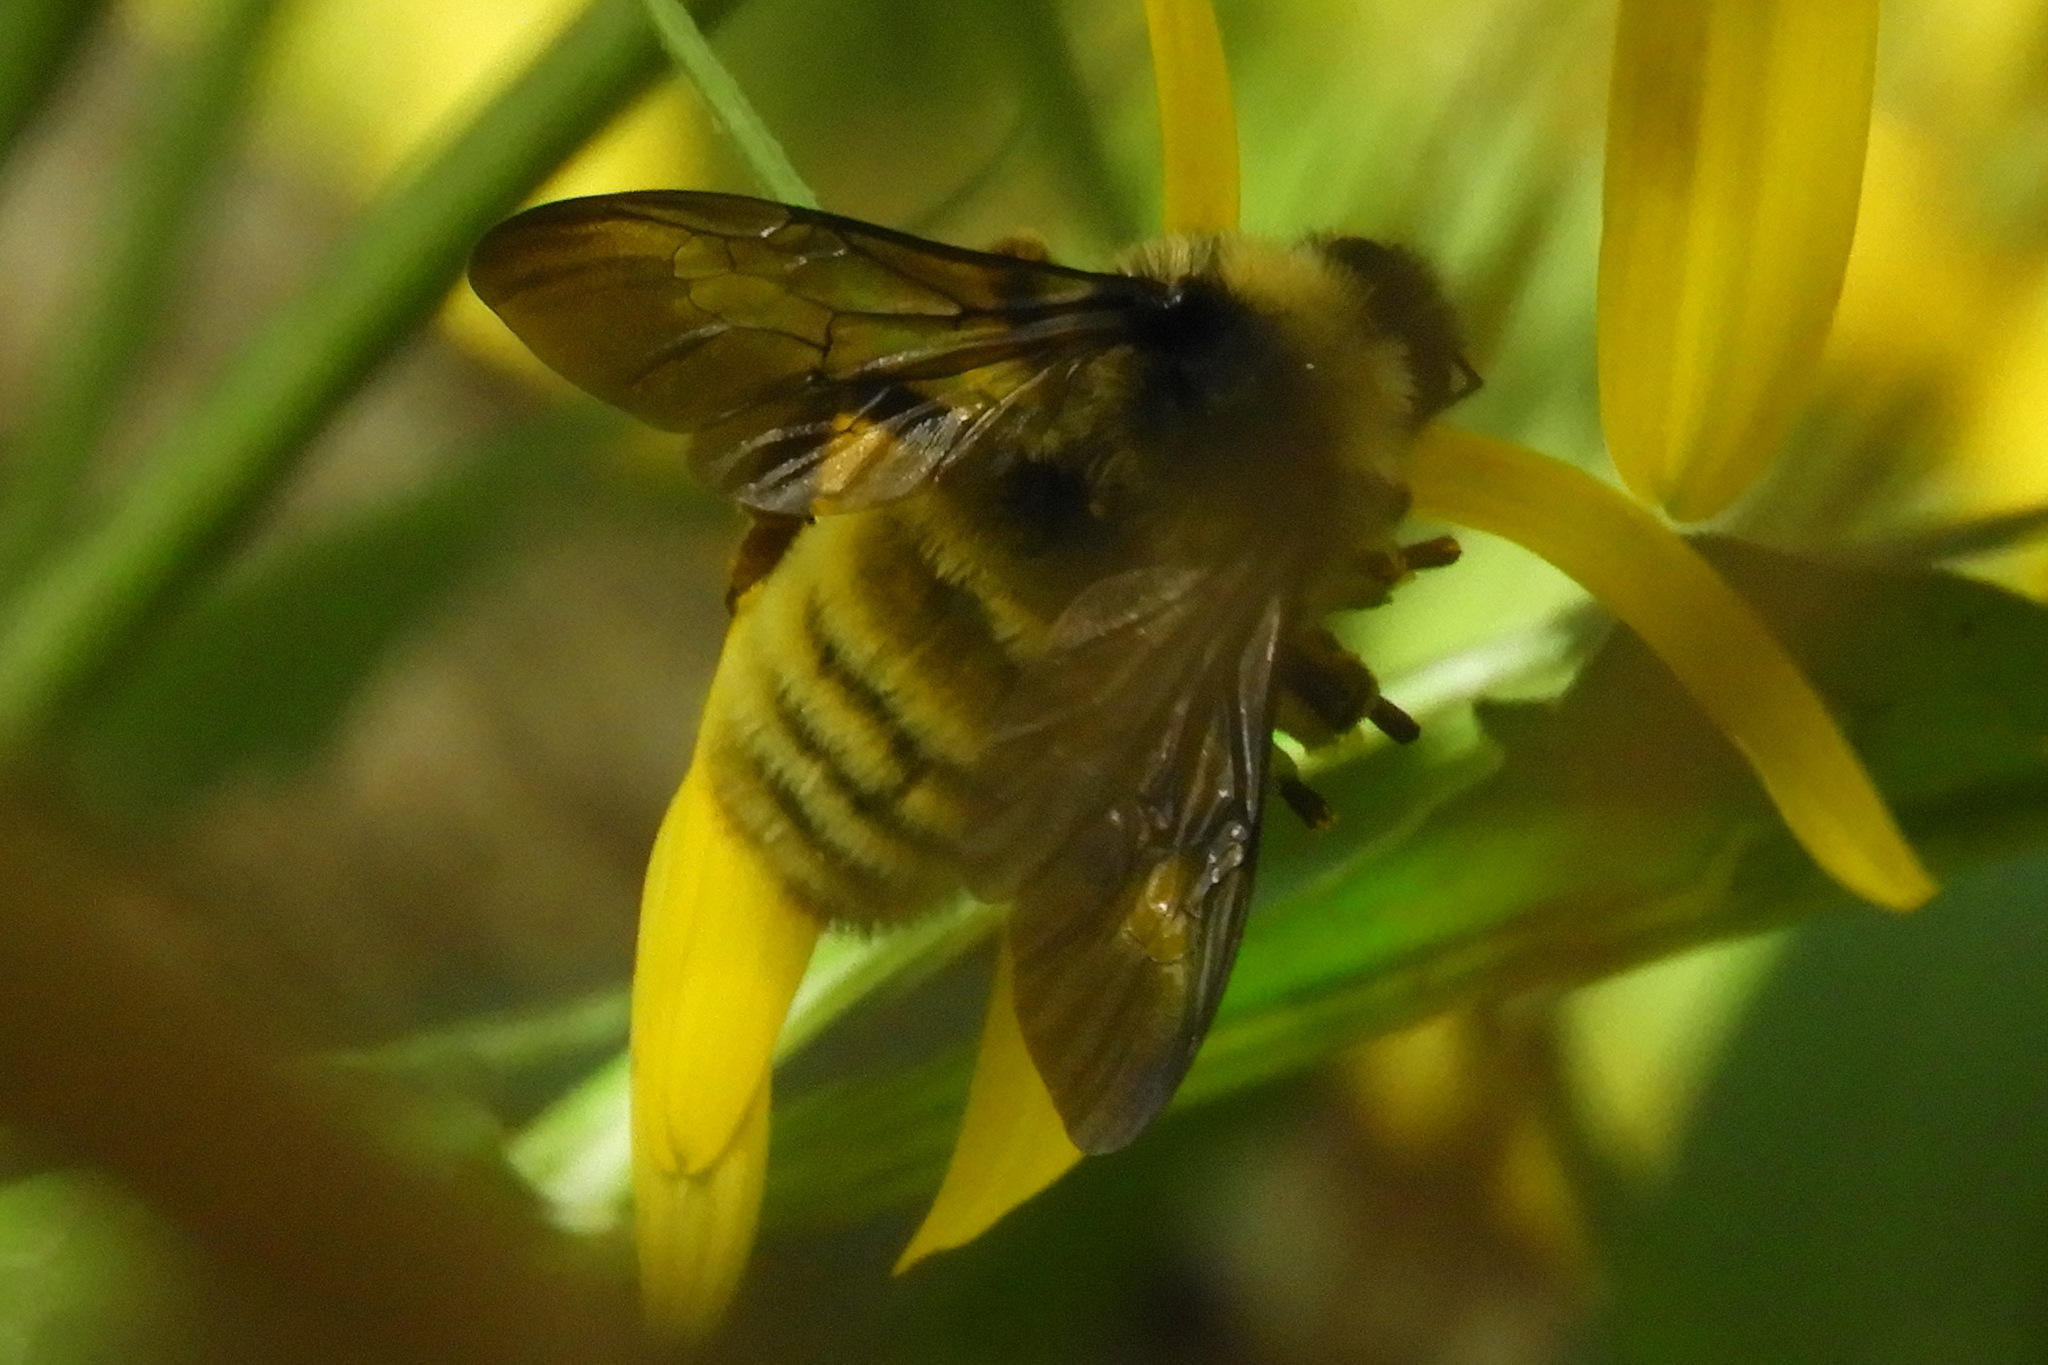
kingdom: Animalia
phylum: Arthropoda
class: Insecta
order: Hymenoptera
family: Apidae
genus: Bombus
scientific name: Bombus pensylvanicus
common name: Bumble bee
